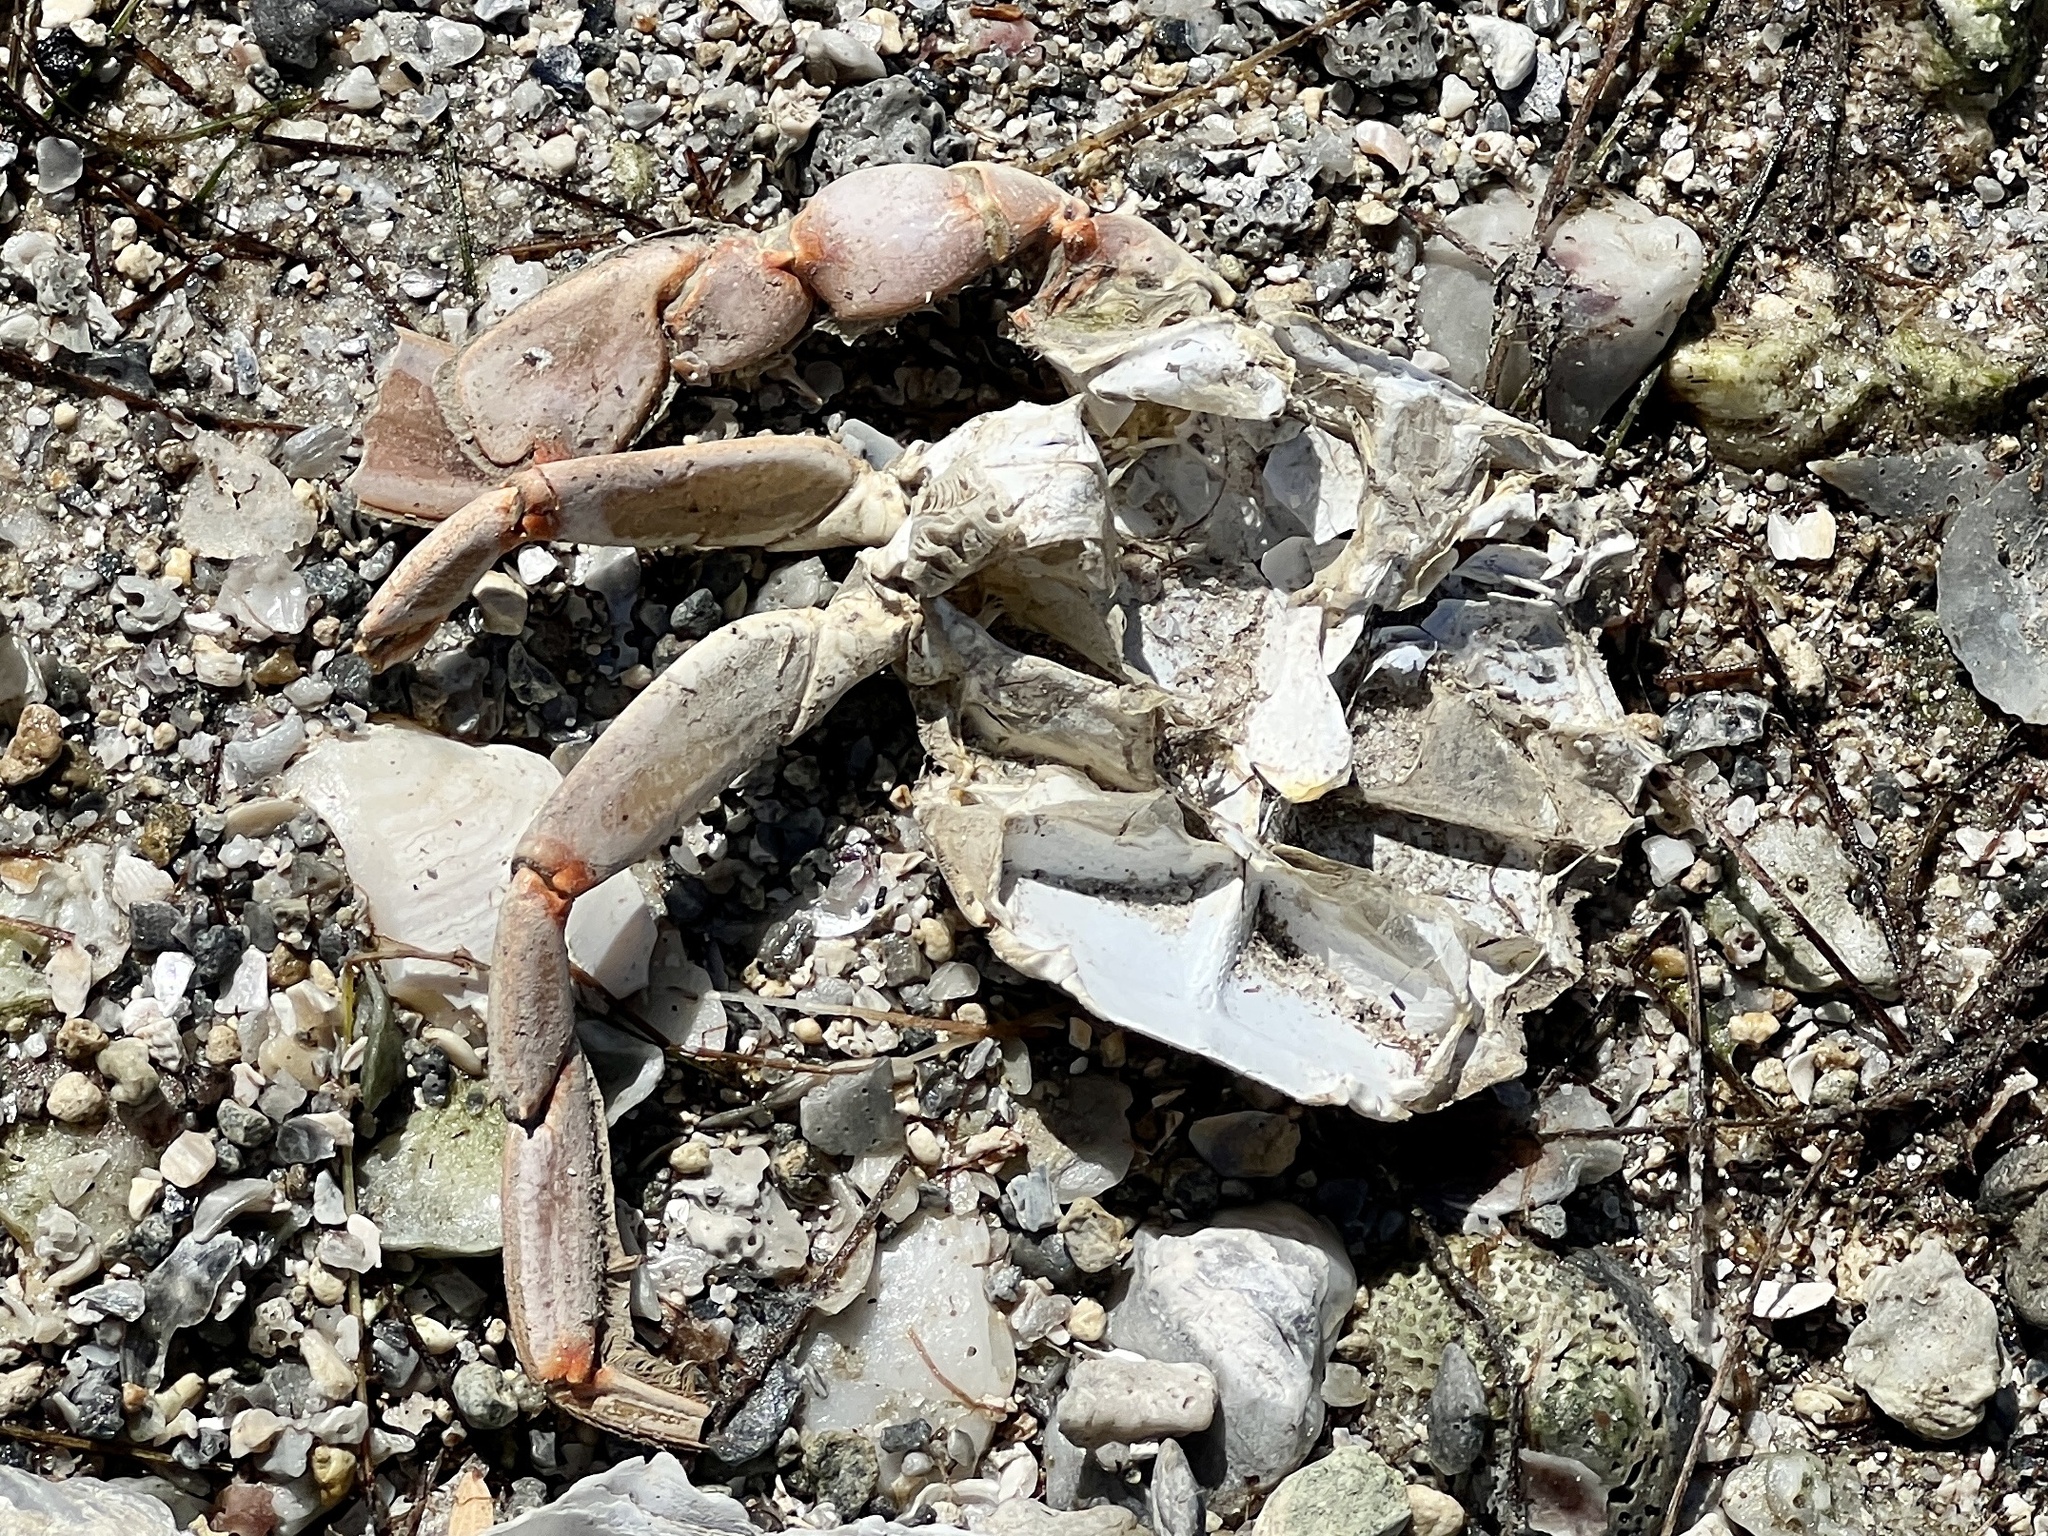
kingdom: Animalia
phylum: Arthropoda
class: Malacostraca
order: Decapoda
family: Portunidae
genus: Callinectes
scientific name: Callinectes sapidus
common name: Blue crab
